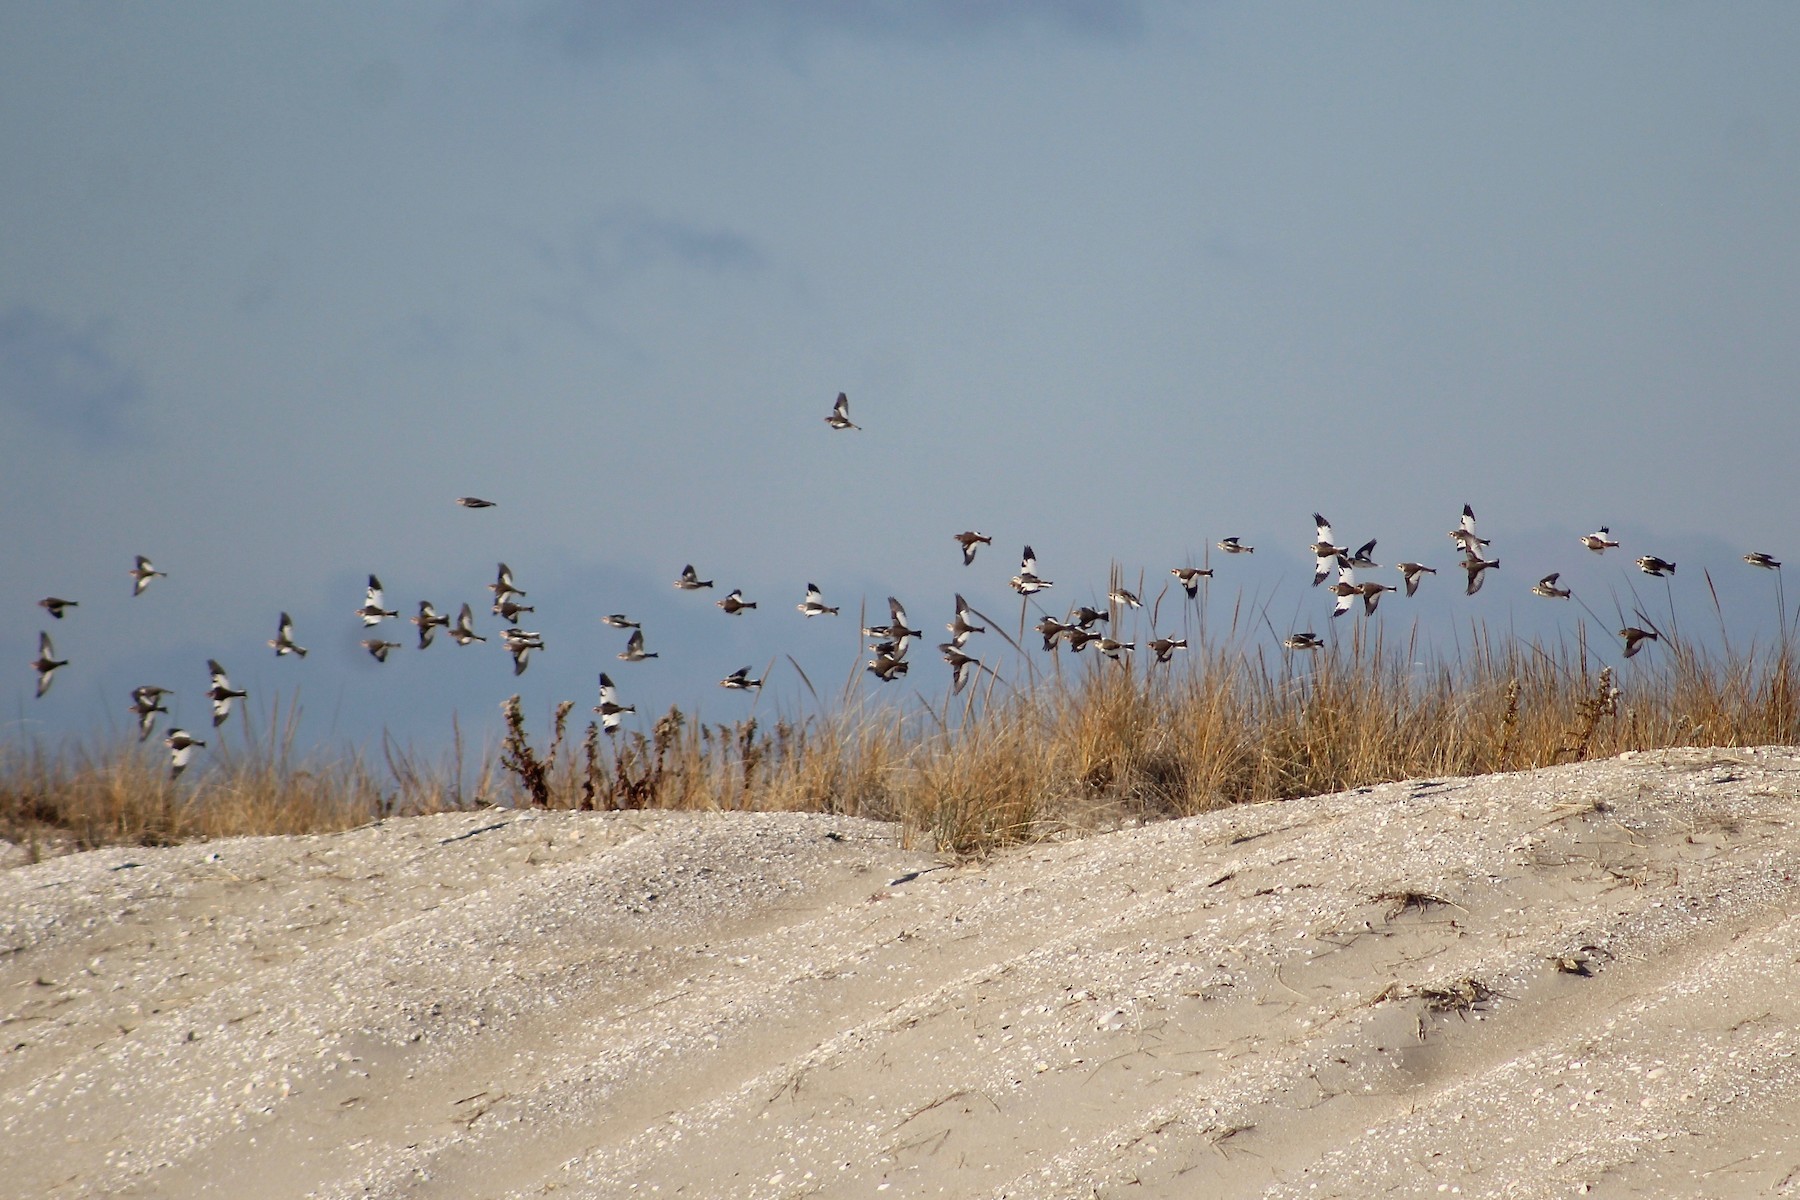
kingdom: Animalia
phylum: Chordata
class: Aves
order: Passeriformes
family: Calcariidae
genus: Plectrophenax
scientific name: Plectrophenax nivalis
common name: Snow bunting
